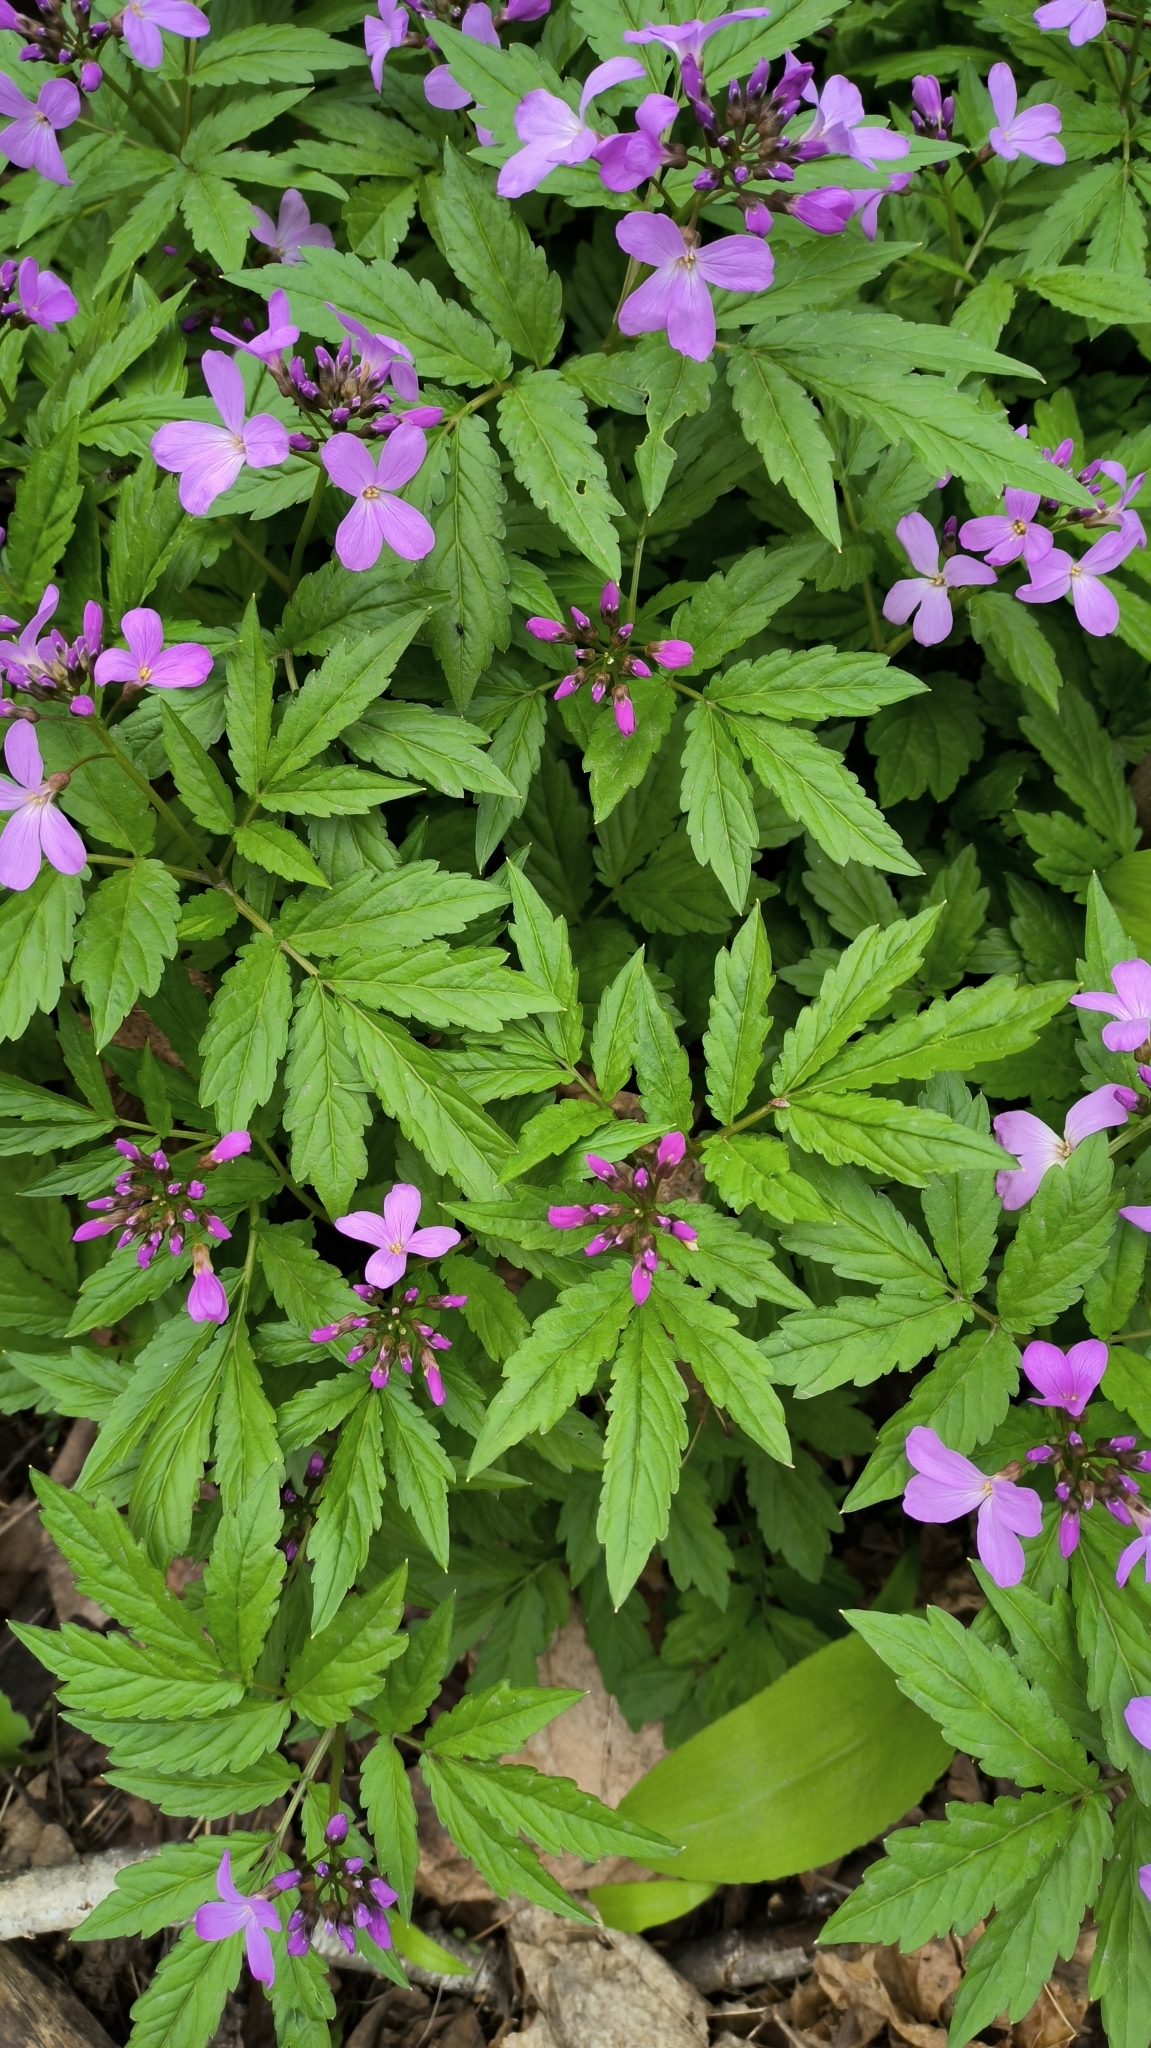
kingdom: Plantae
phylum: Tracheophyta
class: Magnoliopsida
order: Brassicales
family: Brassicaceae
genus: Cardamine
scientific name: Cardamine quinquefolia
